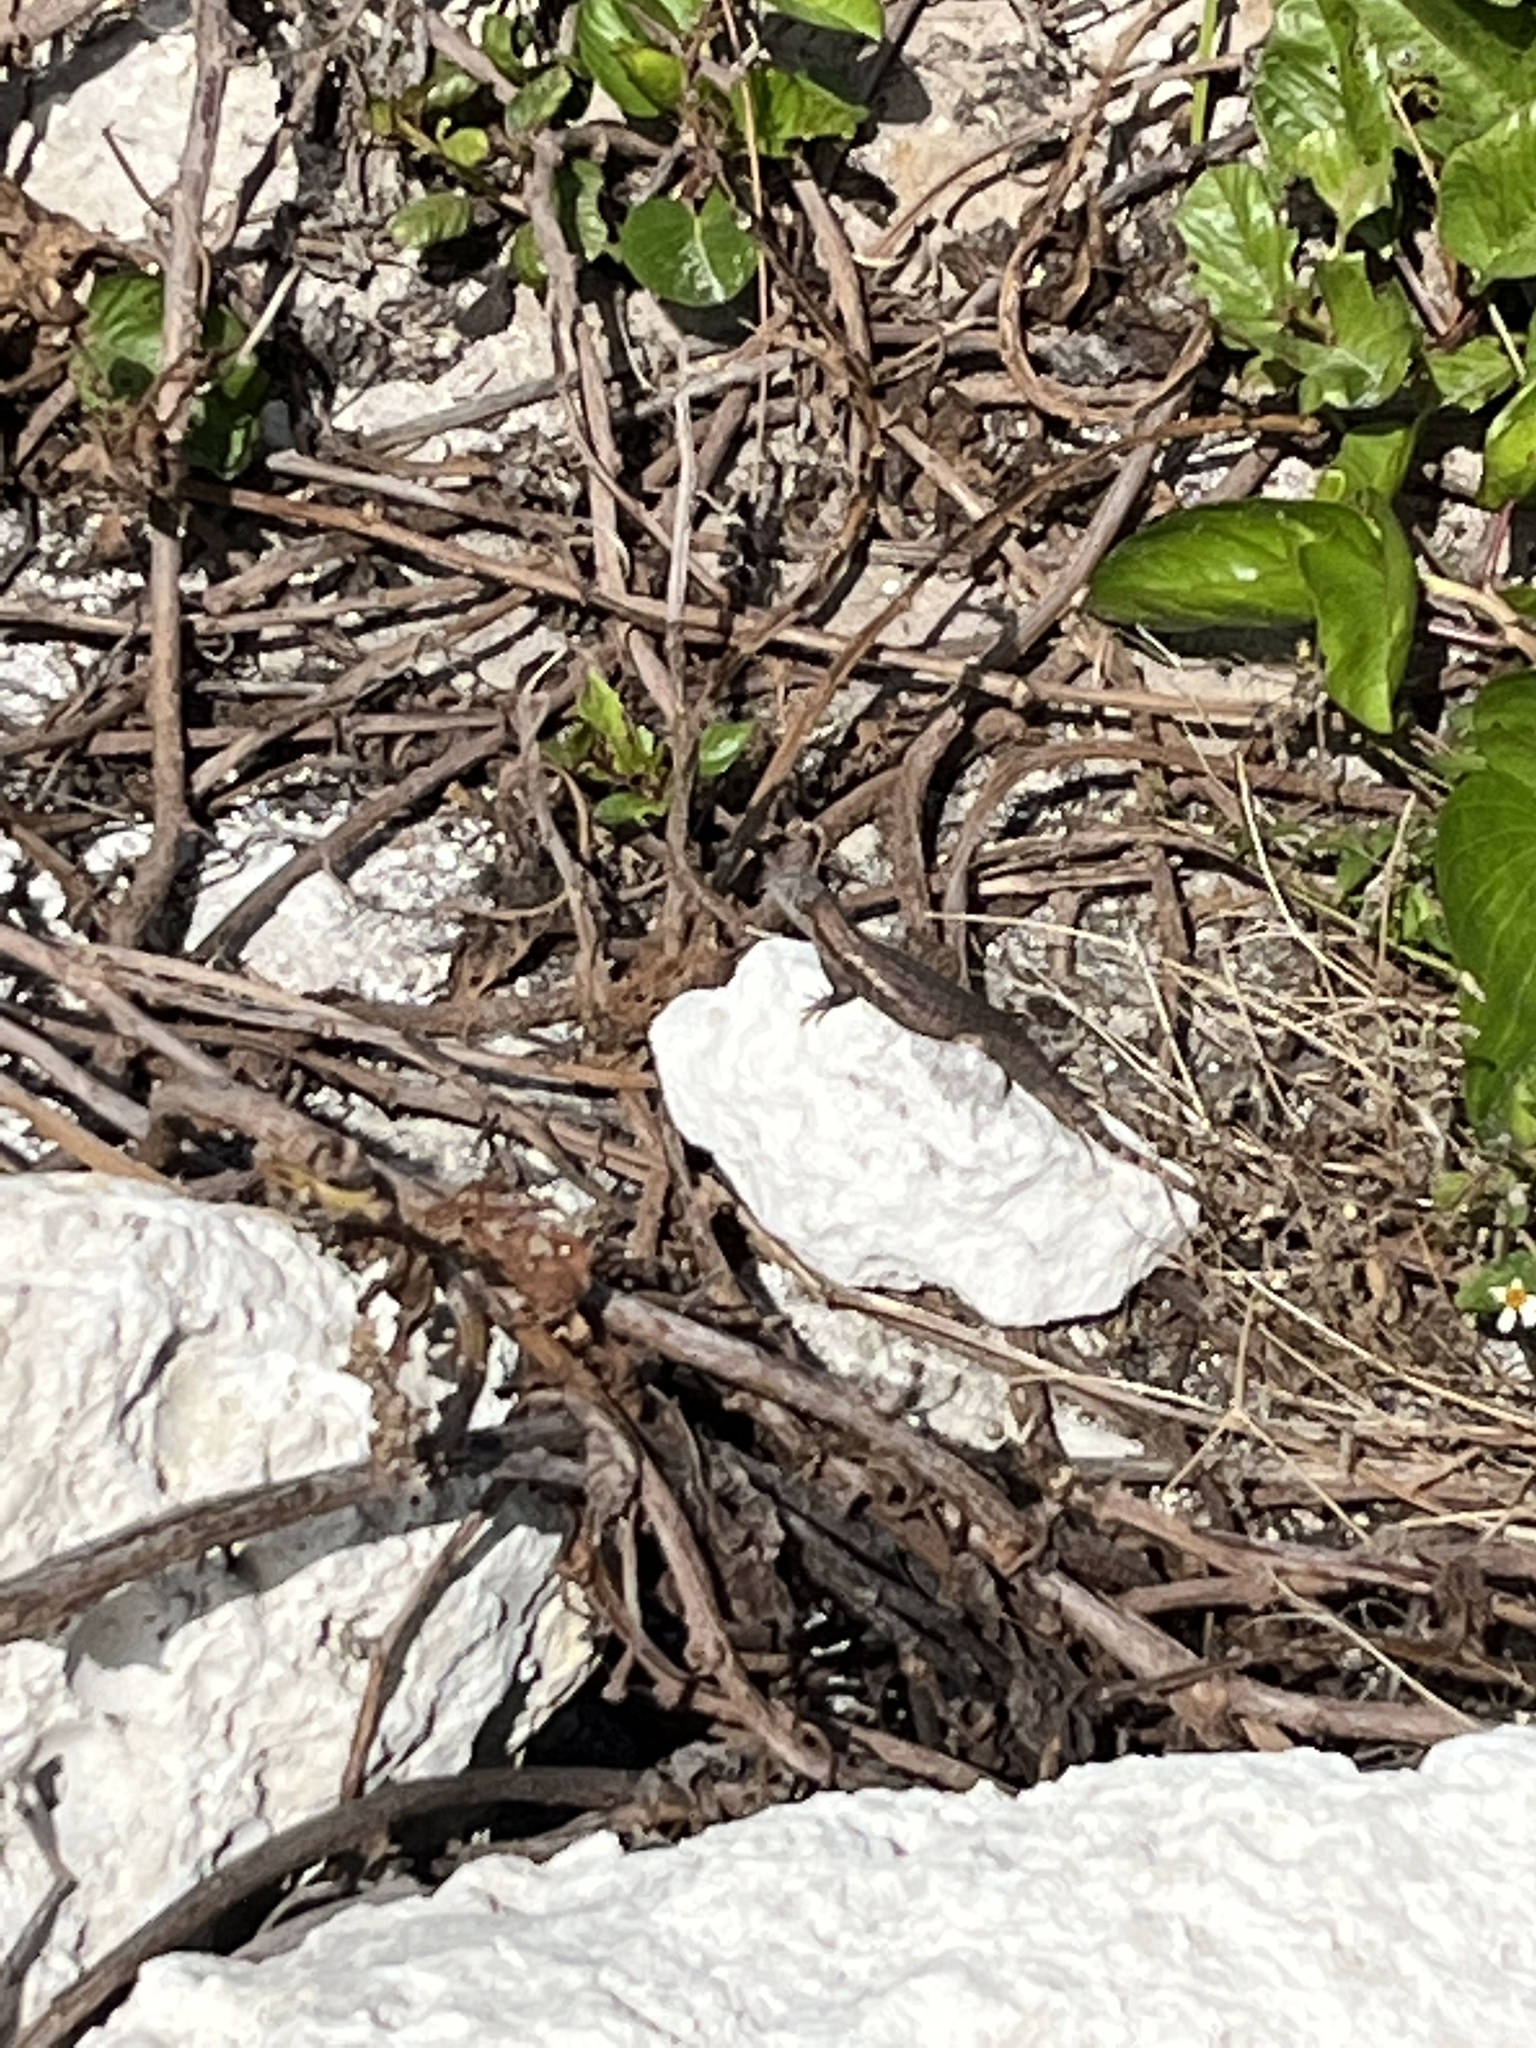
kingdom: Animalia
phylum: Chordata
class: Squamata
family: Leiocephalidae
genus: Leiocephalus
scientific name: Leiocephalus carinatus
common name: Northern curly-tailed lizard
